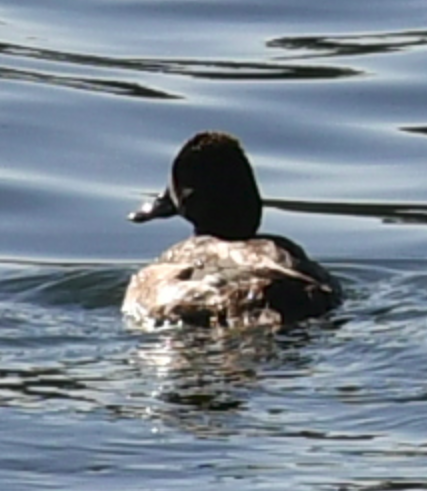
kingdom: Animalia
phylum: Chordata
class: Aves
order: Anseriformes
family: Anatidae
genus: Aythya
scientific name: Aythya affinis
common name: Lesser scaup
